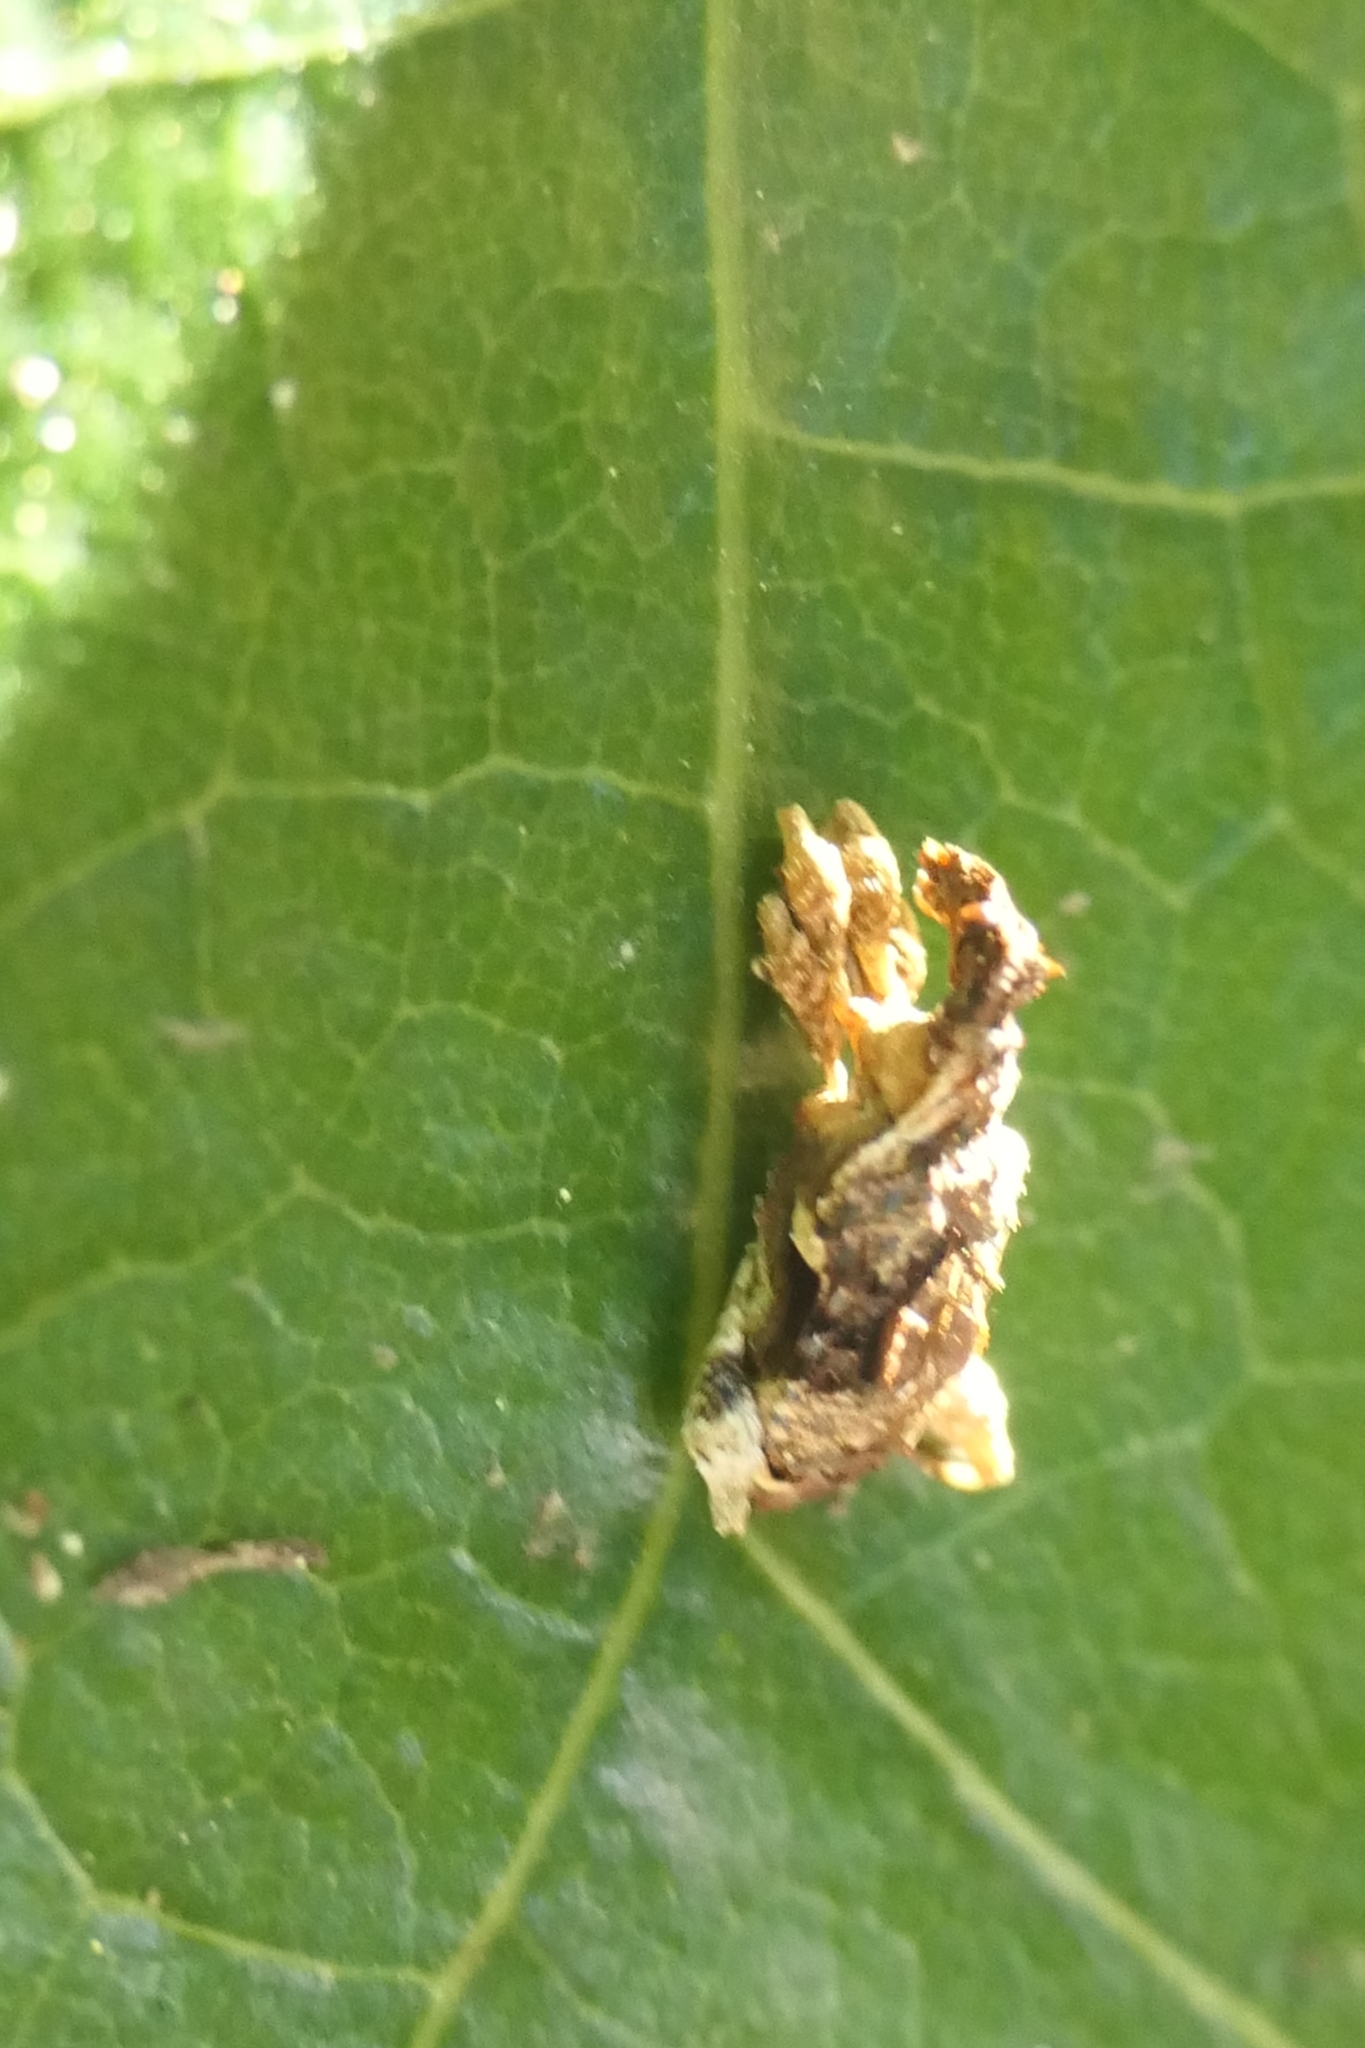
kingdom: Animalia
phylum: Arthropoda
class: Insecta
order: Coleoptera
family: Curculionidae
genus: Stephanorhynchus
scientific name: Stephanorhynchus curvipes
